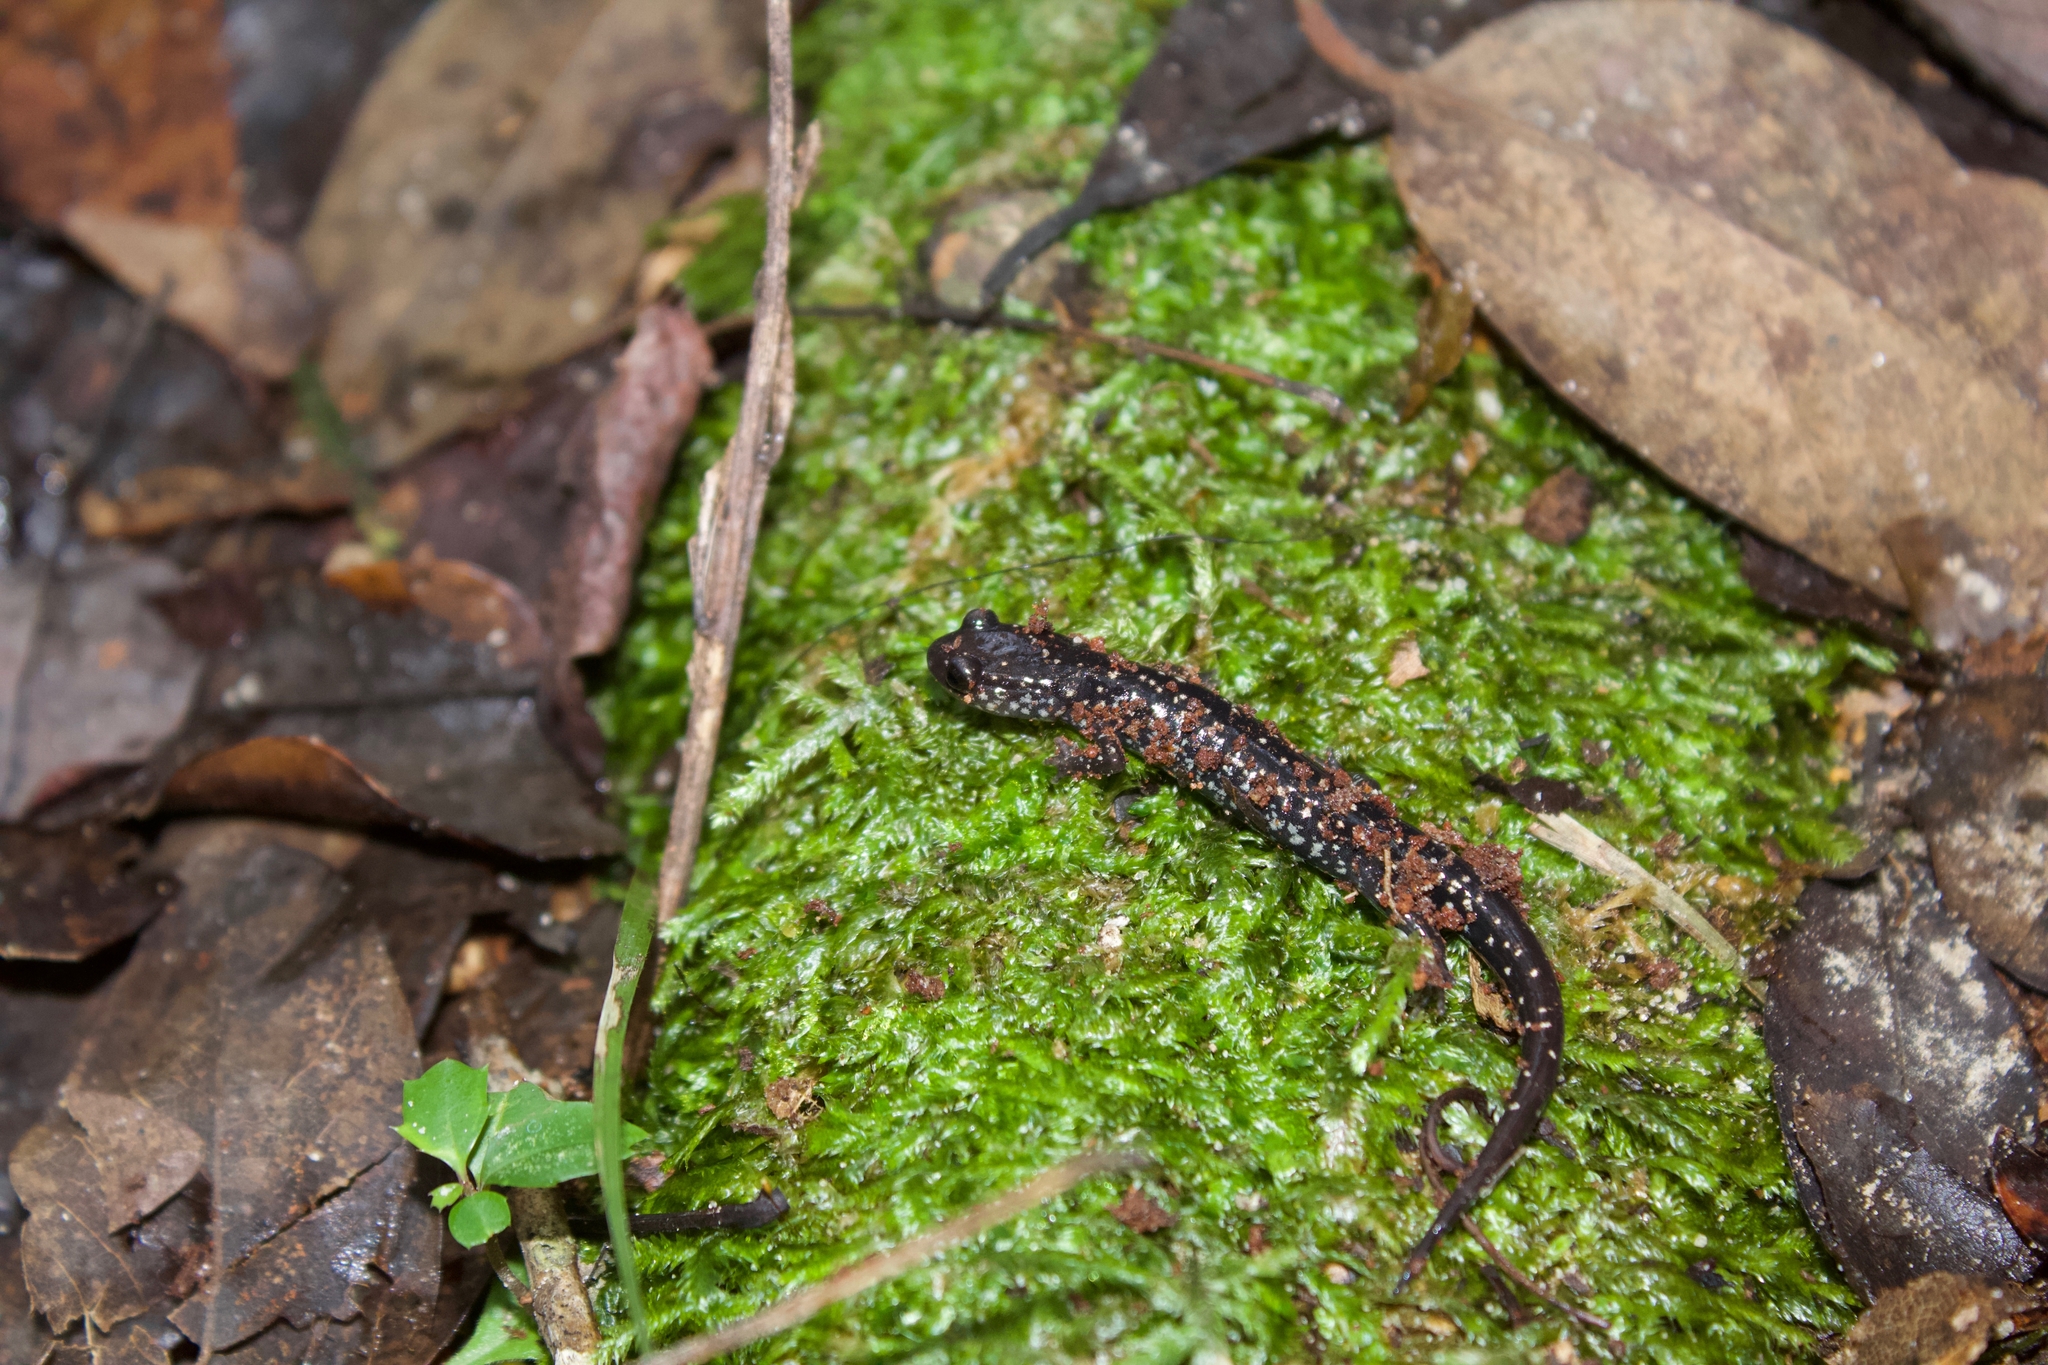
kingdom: Animalia
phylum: Chordata
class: Amphibia
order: Caudata
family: Plethodontidae
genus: Plethodon
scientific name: Plethodon mississippi
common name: Mississippi slimy salamander
